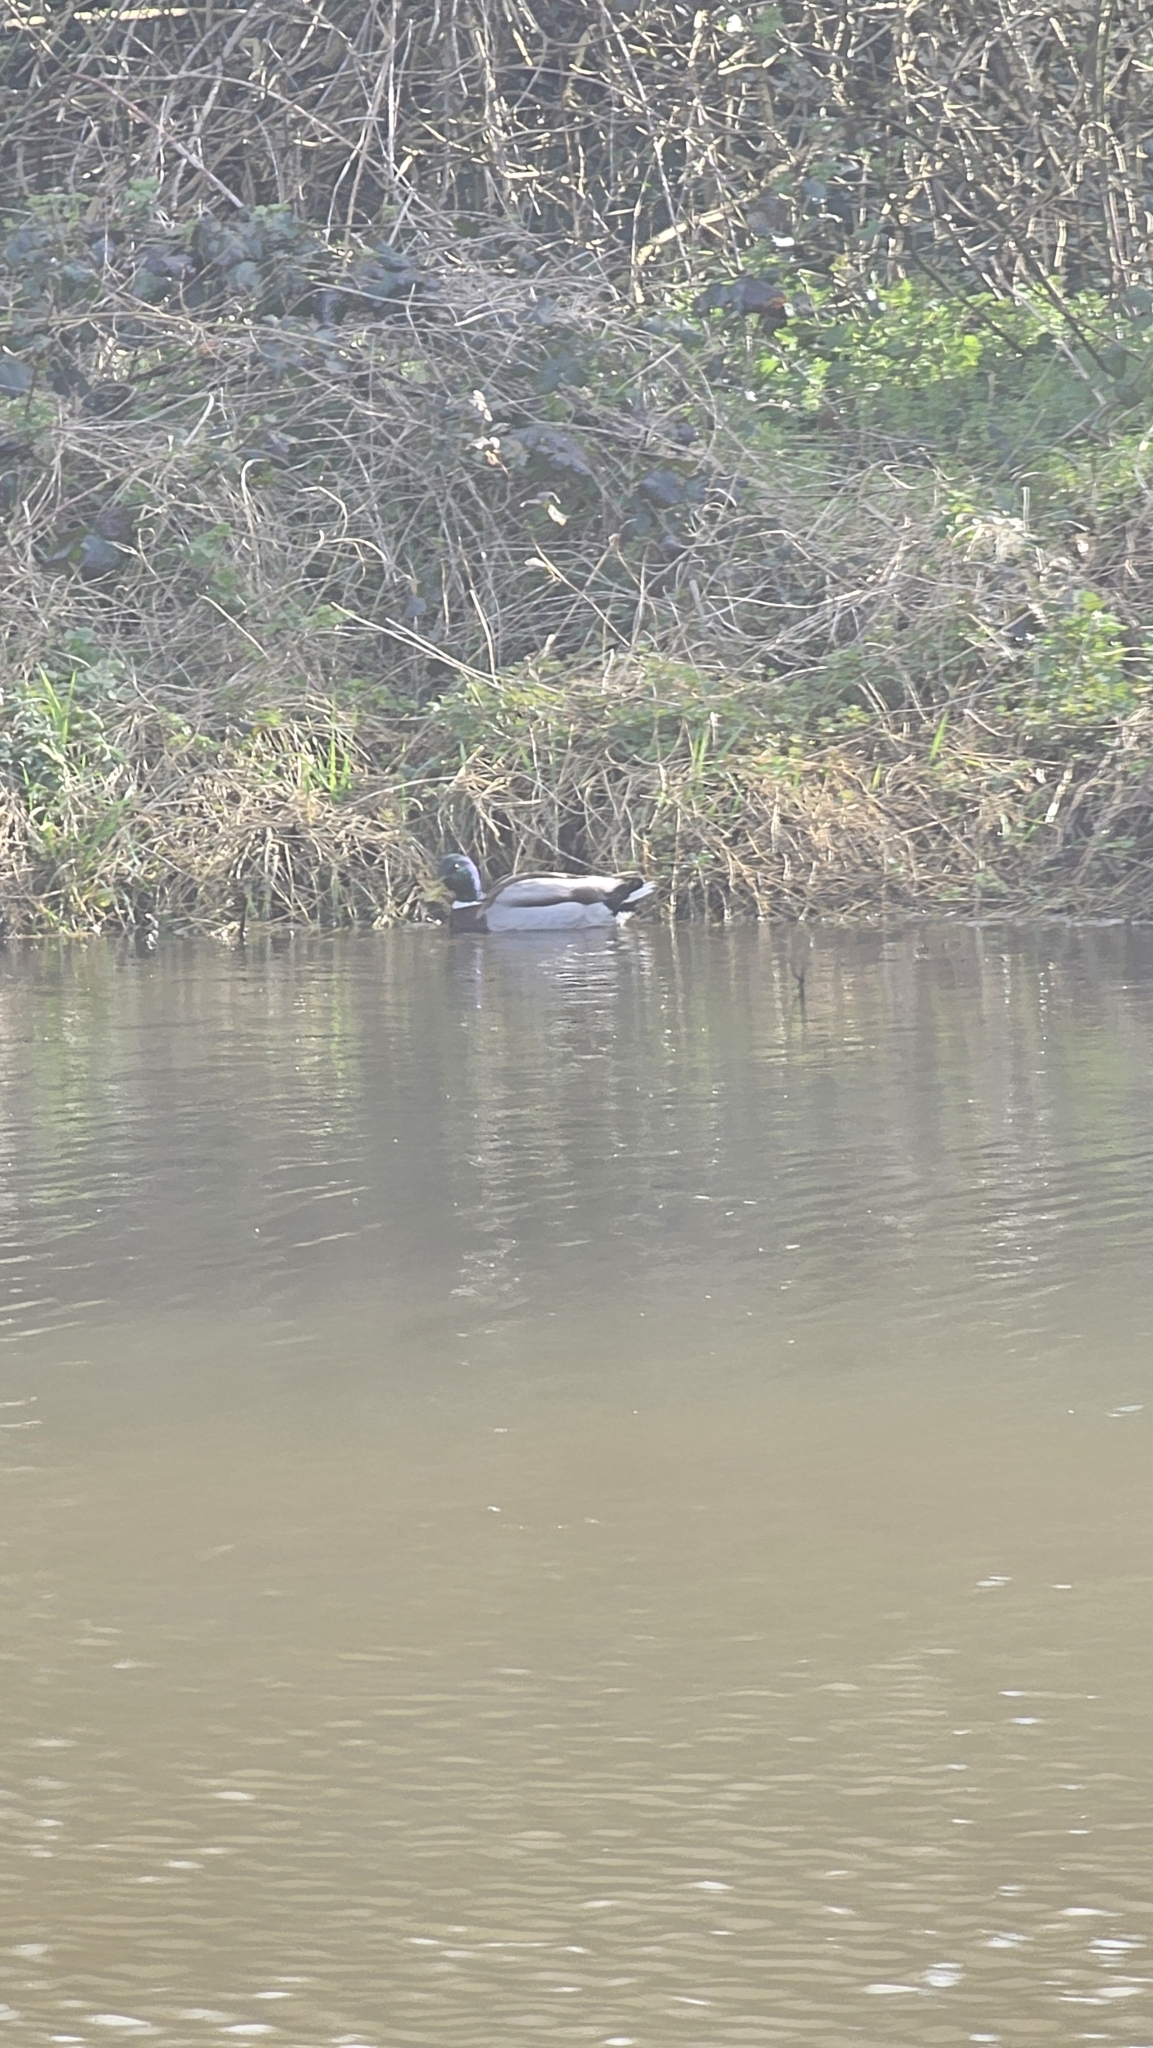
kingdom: Animalia
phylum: Chordata
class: Aves
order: Anseriformes
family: Anatidae
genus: Anas
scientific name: Anas platyrhynchos
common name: Mallard
